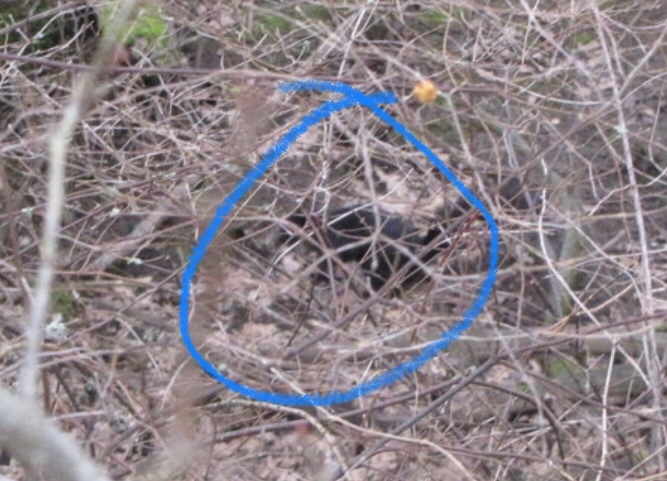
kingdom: Animalia
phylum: Chordata
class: Mammalia
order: Rodentia
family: Sciuridae
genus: Sciurus
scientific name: Sciurus carolinensis
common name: Eastern gray squirrel
